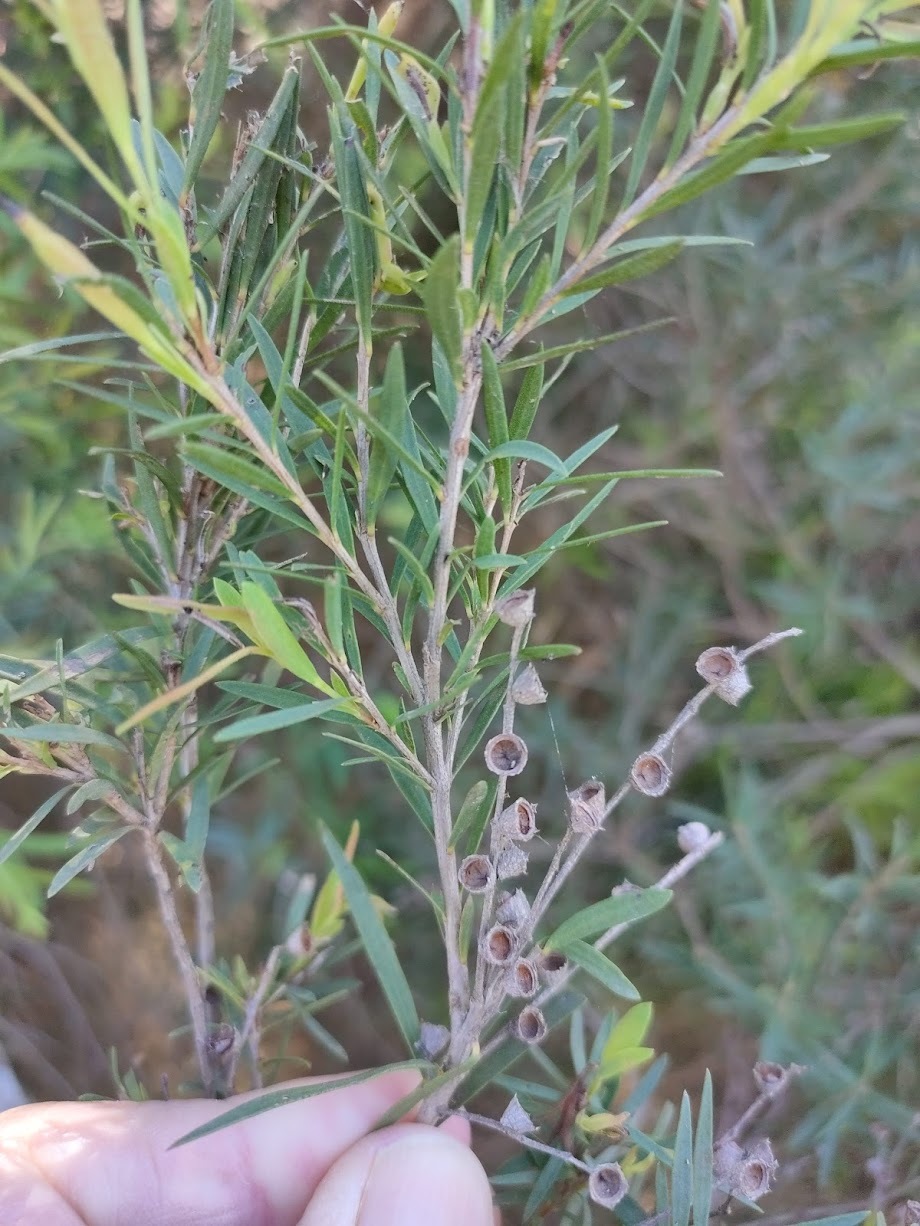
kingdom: Plantae
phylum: Tracheophyta
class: Magnoliopsida
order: Myrtales
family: Myrtaceae
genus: Melaleuca
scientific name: Melaleuca trichostachya
